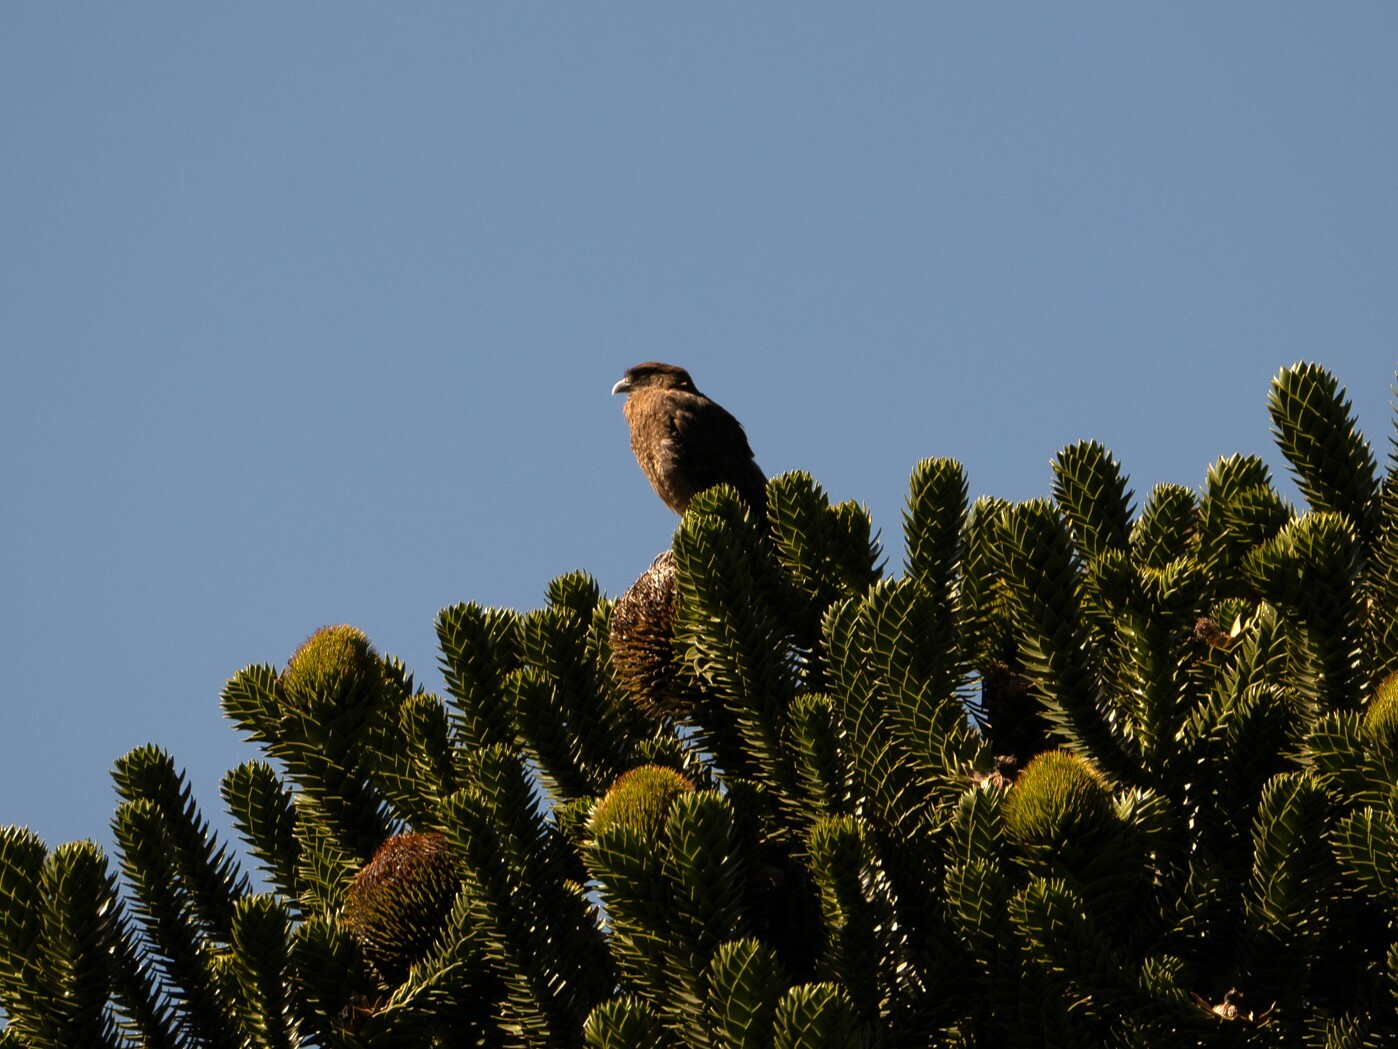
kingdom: Animalia
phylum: Chordata
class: Aves
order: Falconiformes
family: Falconidae
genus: Daptrius
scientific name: Daptrius
